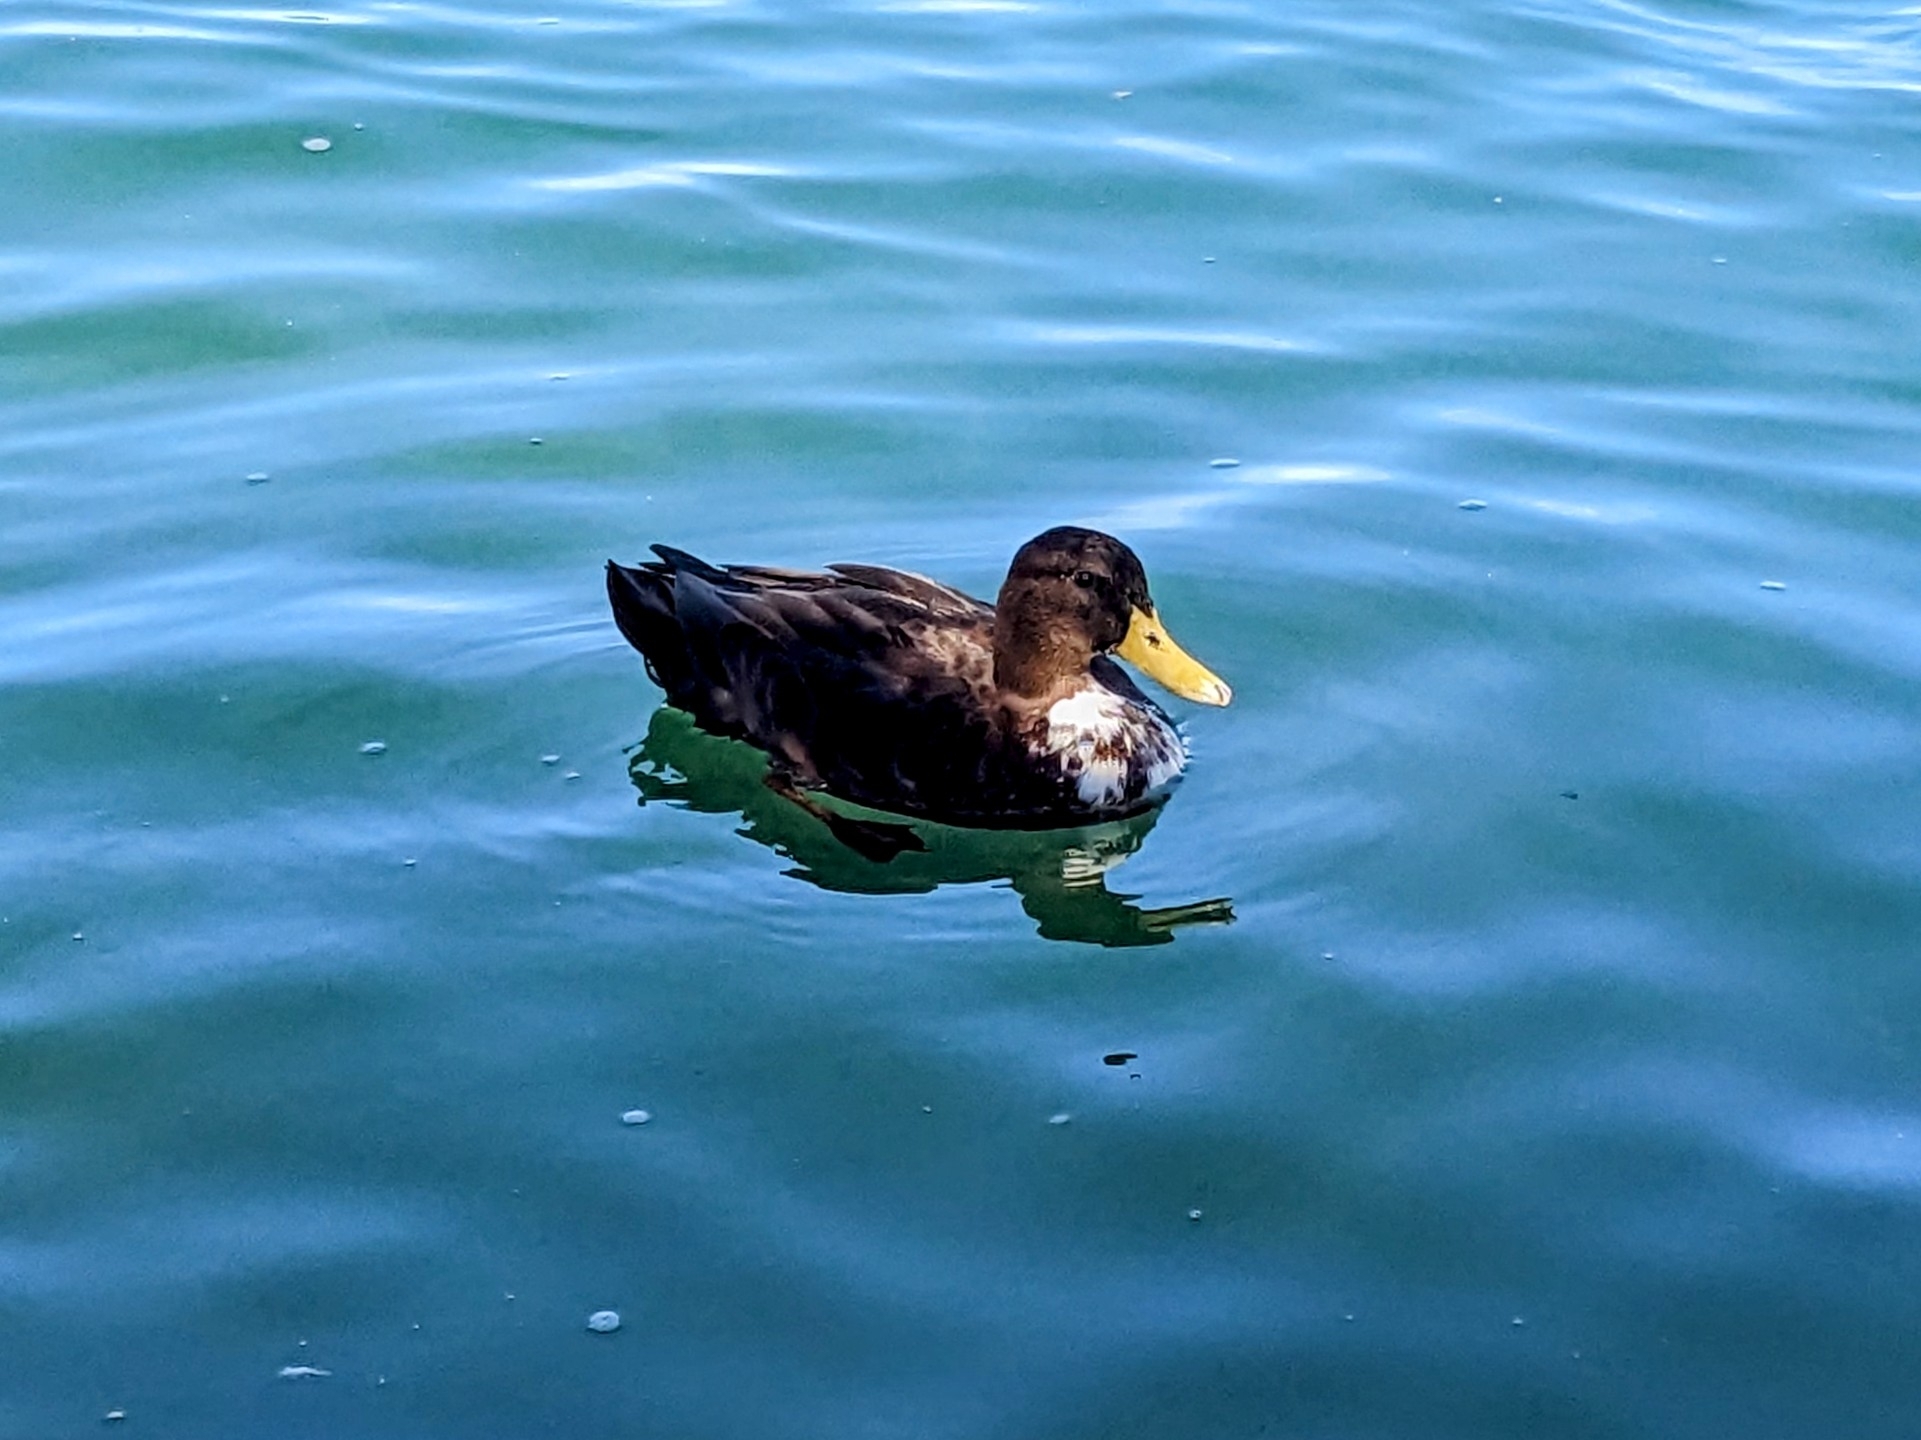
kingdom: Animalia
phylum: Chordata
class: Aves
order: Anseriformes
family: Anatidae
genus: Anas
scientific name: Anas platyrhynchos
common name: Mallard
